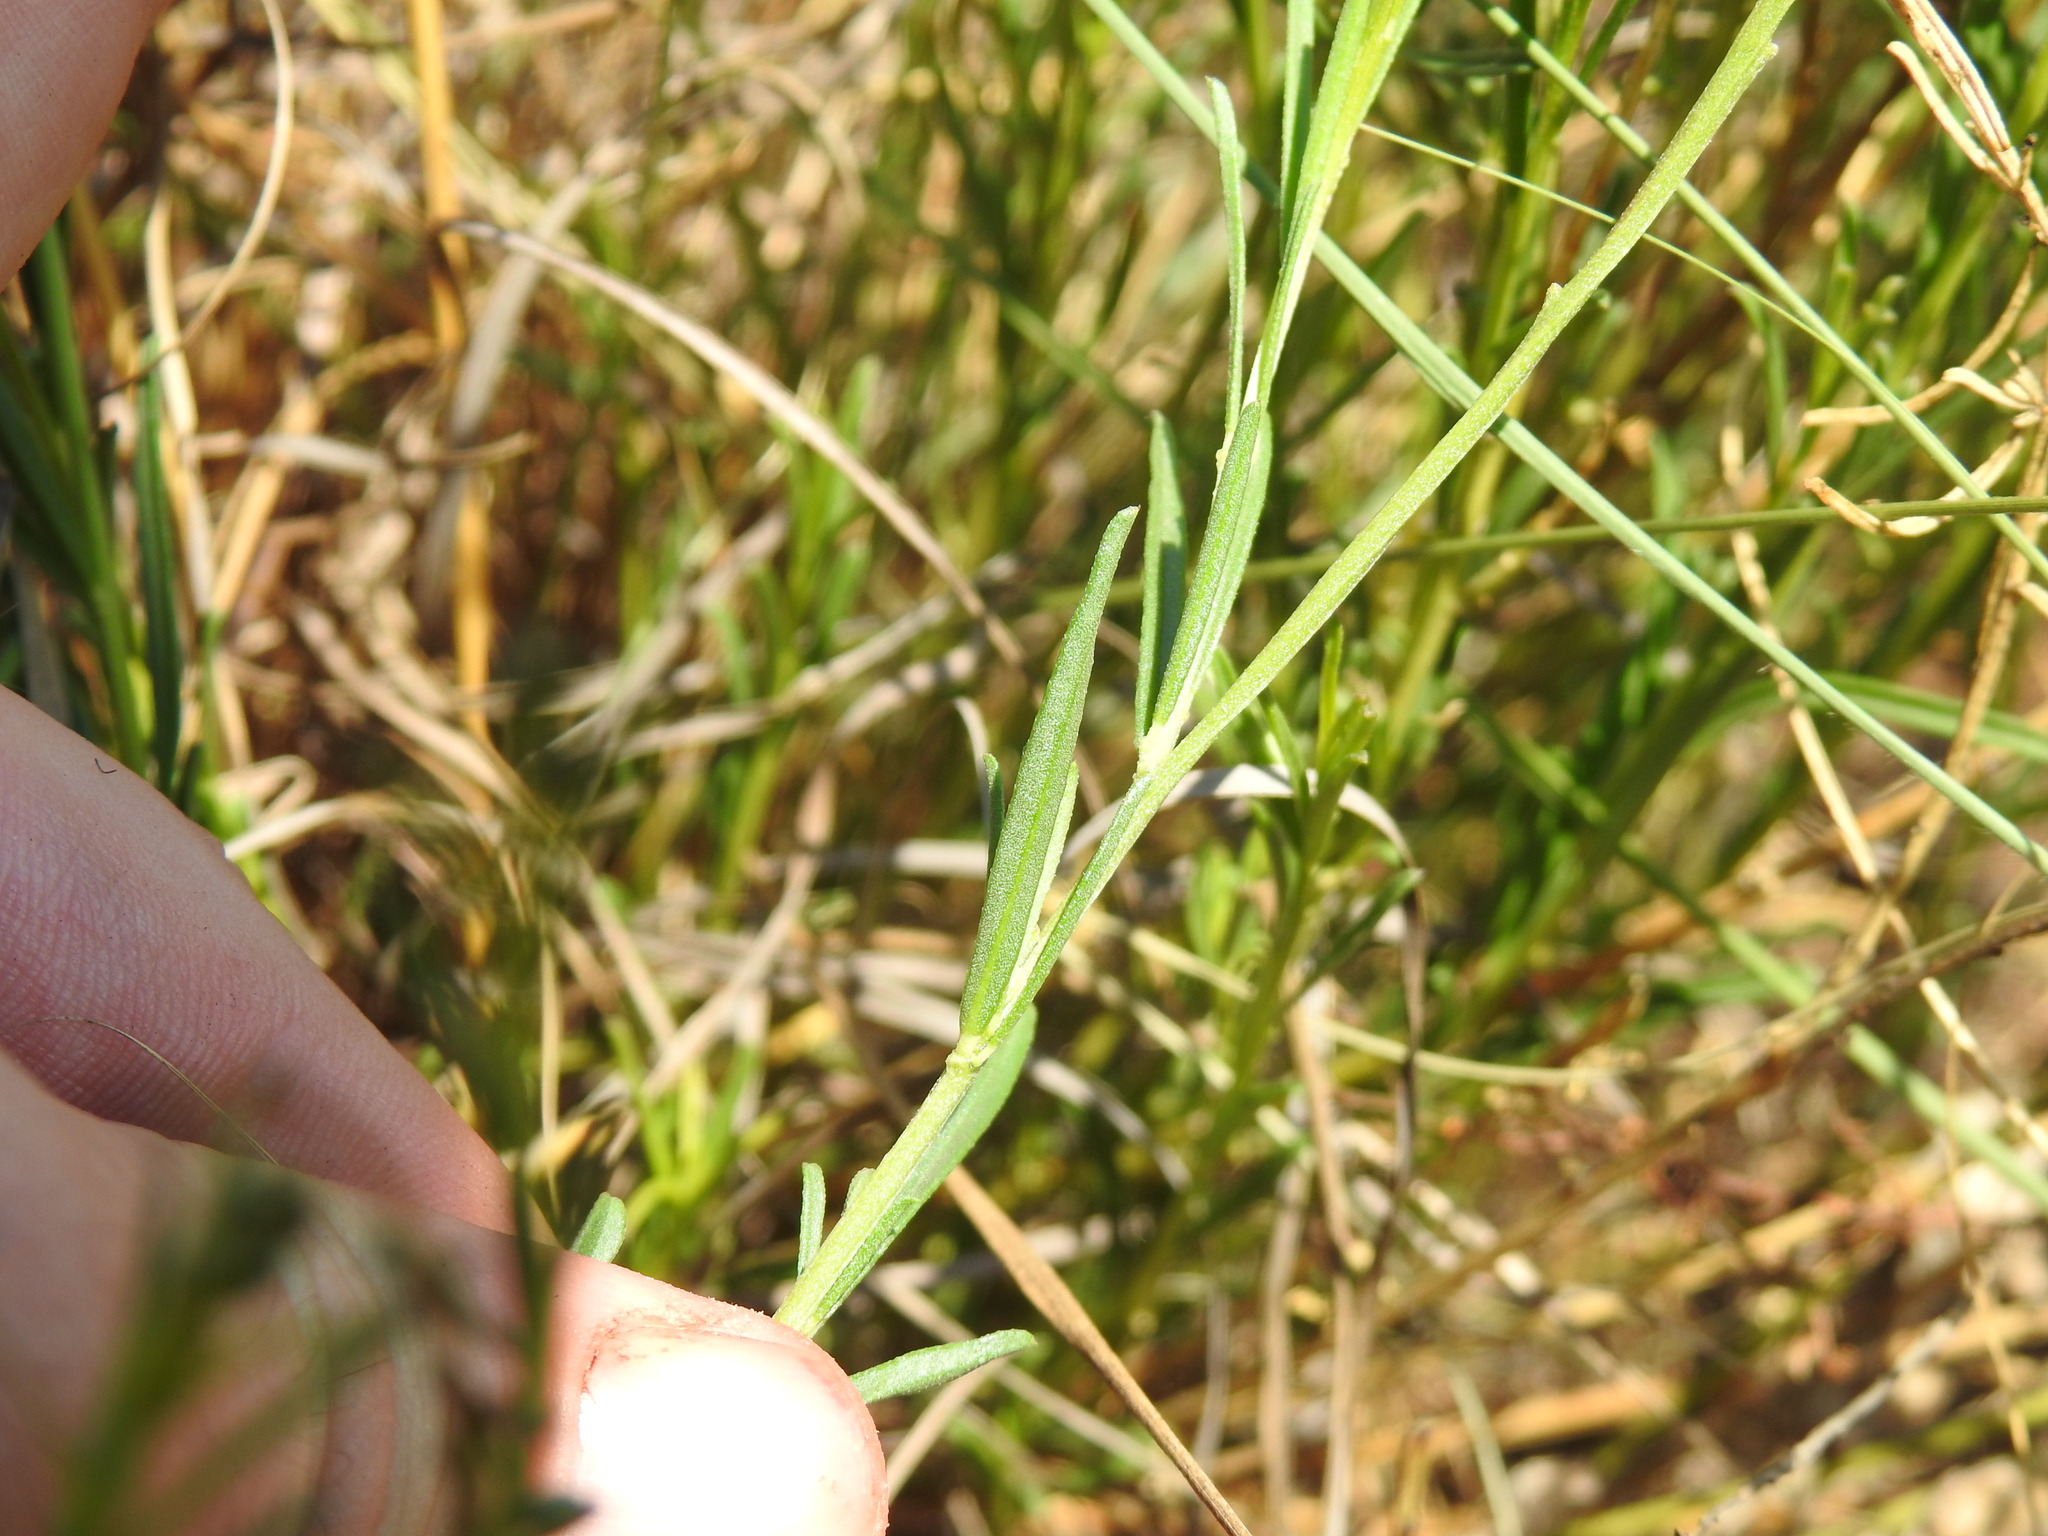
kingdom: Plantae
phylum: Tracheophyta
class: Magnoliopsida
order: Fabales
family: Polygalaceae
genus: Polygala
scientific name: Polygala uncinata
